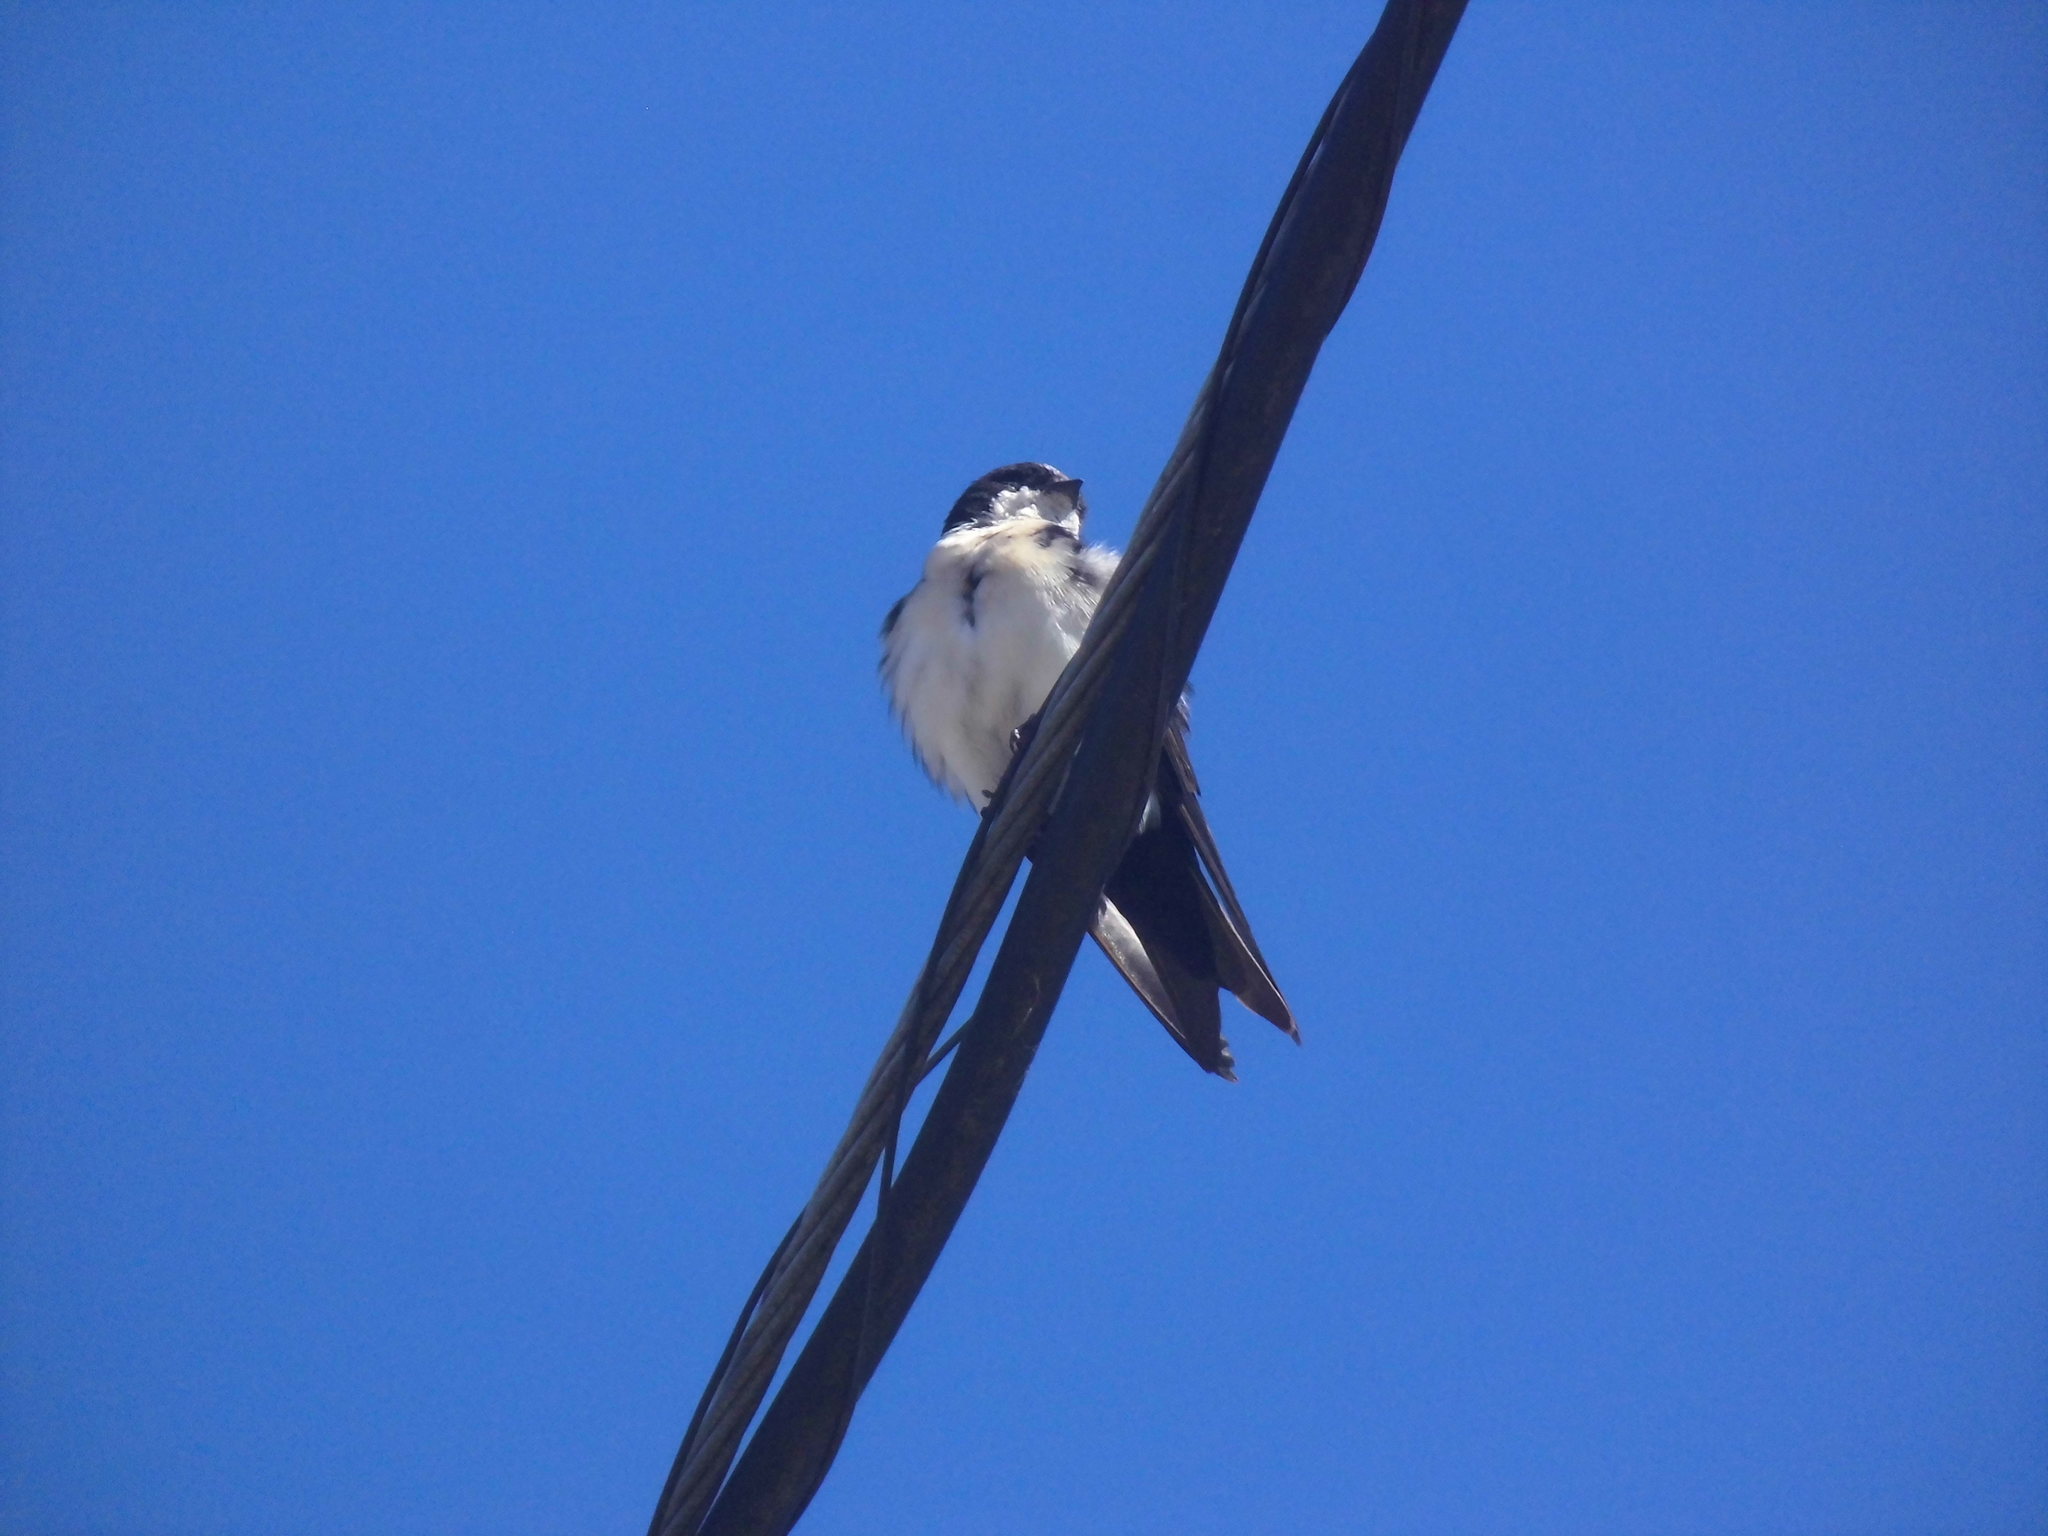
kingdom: Animalia
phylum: Chordata
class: Aves
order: Passeriformes
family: Hirundinidae
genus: Notiochelidon
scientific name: Notiochelidon cyanoleuca
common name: Blue-and-white swallow
